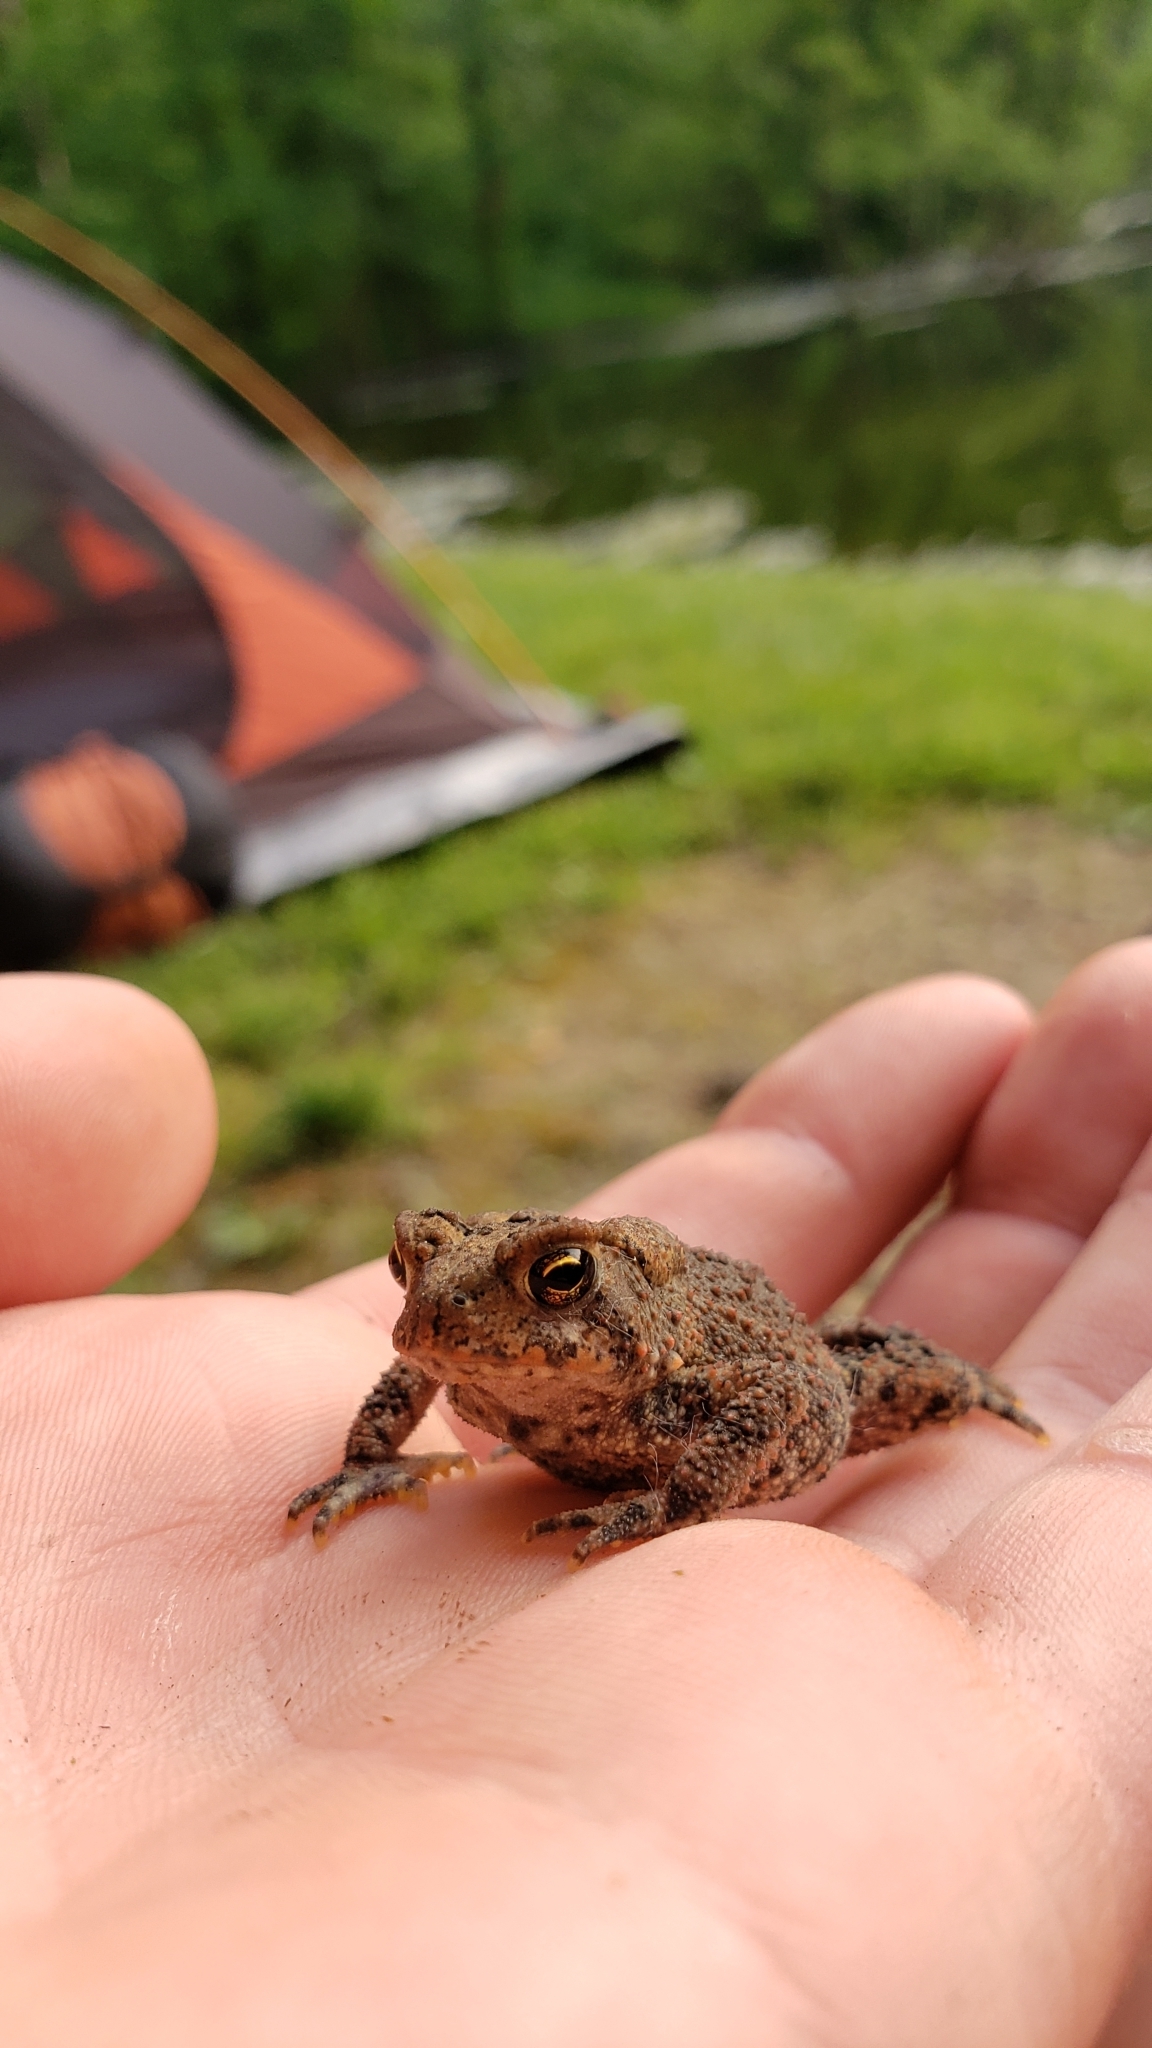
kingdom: Animalia
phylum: Chordata
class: Amphibia
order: Anura
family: Bufonidae
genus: Anaxyrus
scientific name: Anaxyrus americanus
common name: American toad
